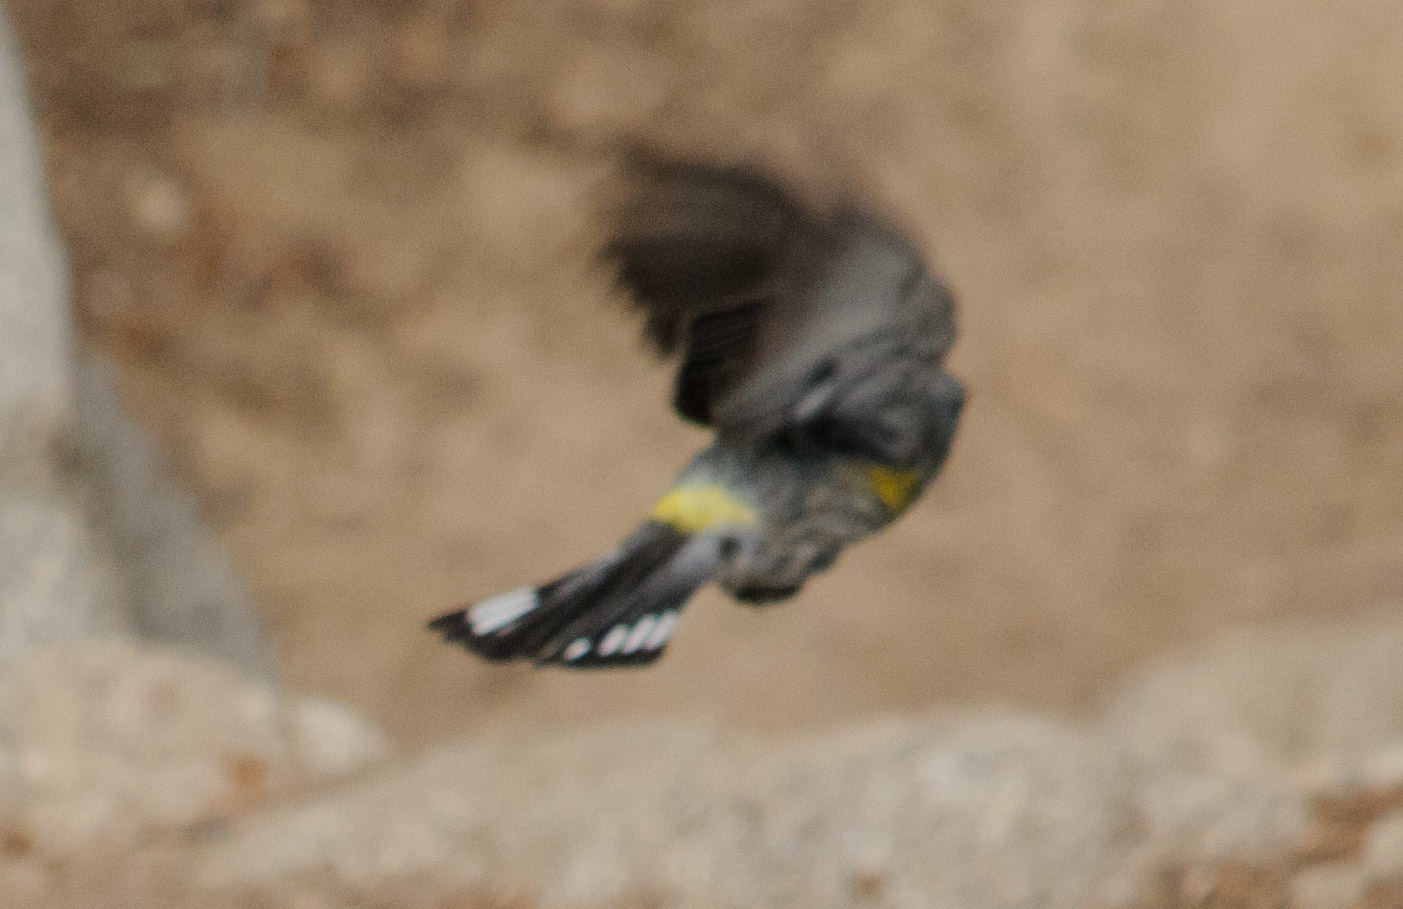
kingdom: Animalia
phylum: Chordata
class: Aves
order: Passeriformes
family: Parulidae
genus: Setophaga
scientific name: Setophaga auduboni
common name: Audubon's warbler
